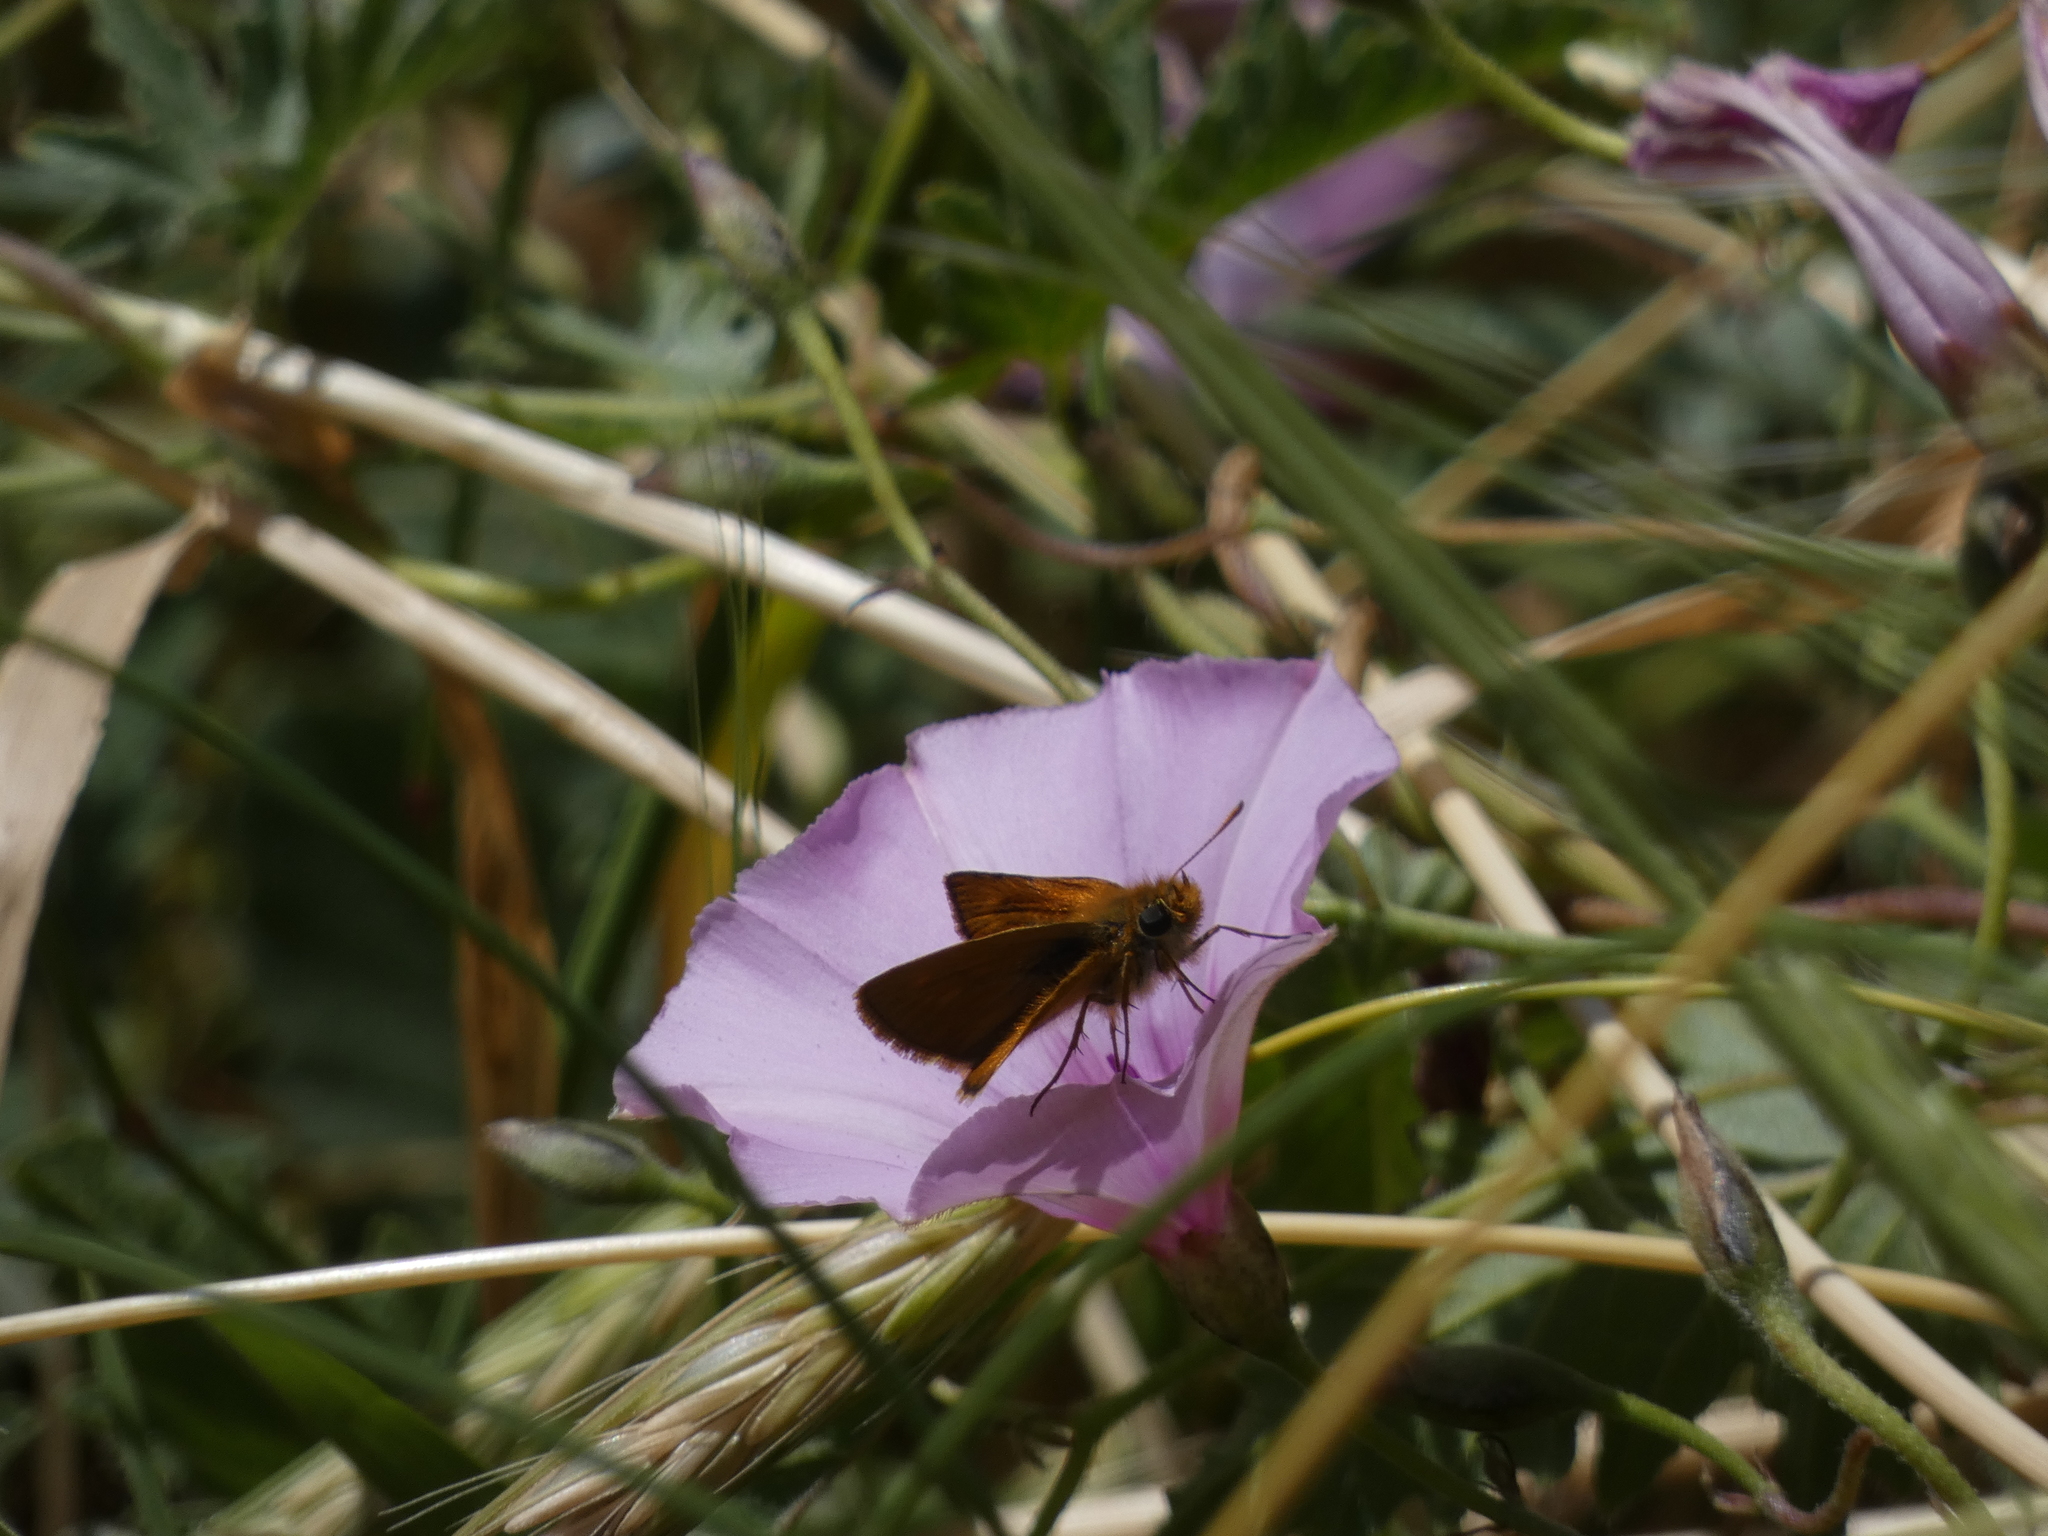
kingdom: Animalia
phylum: Arthropoda
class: Insecta
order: Lepidoptera
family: Hesperiidae
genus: Thymelicus
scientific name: Thymelicus acteon
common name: Lulworth skipper
